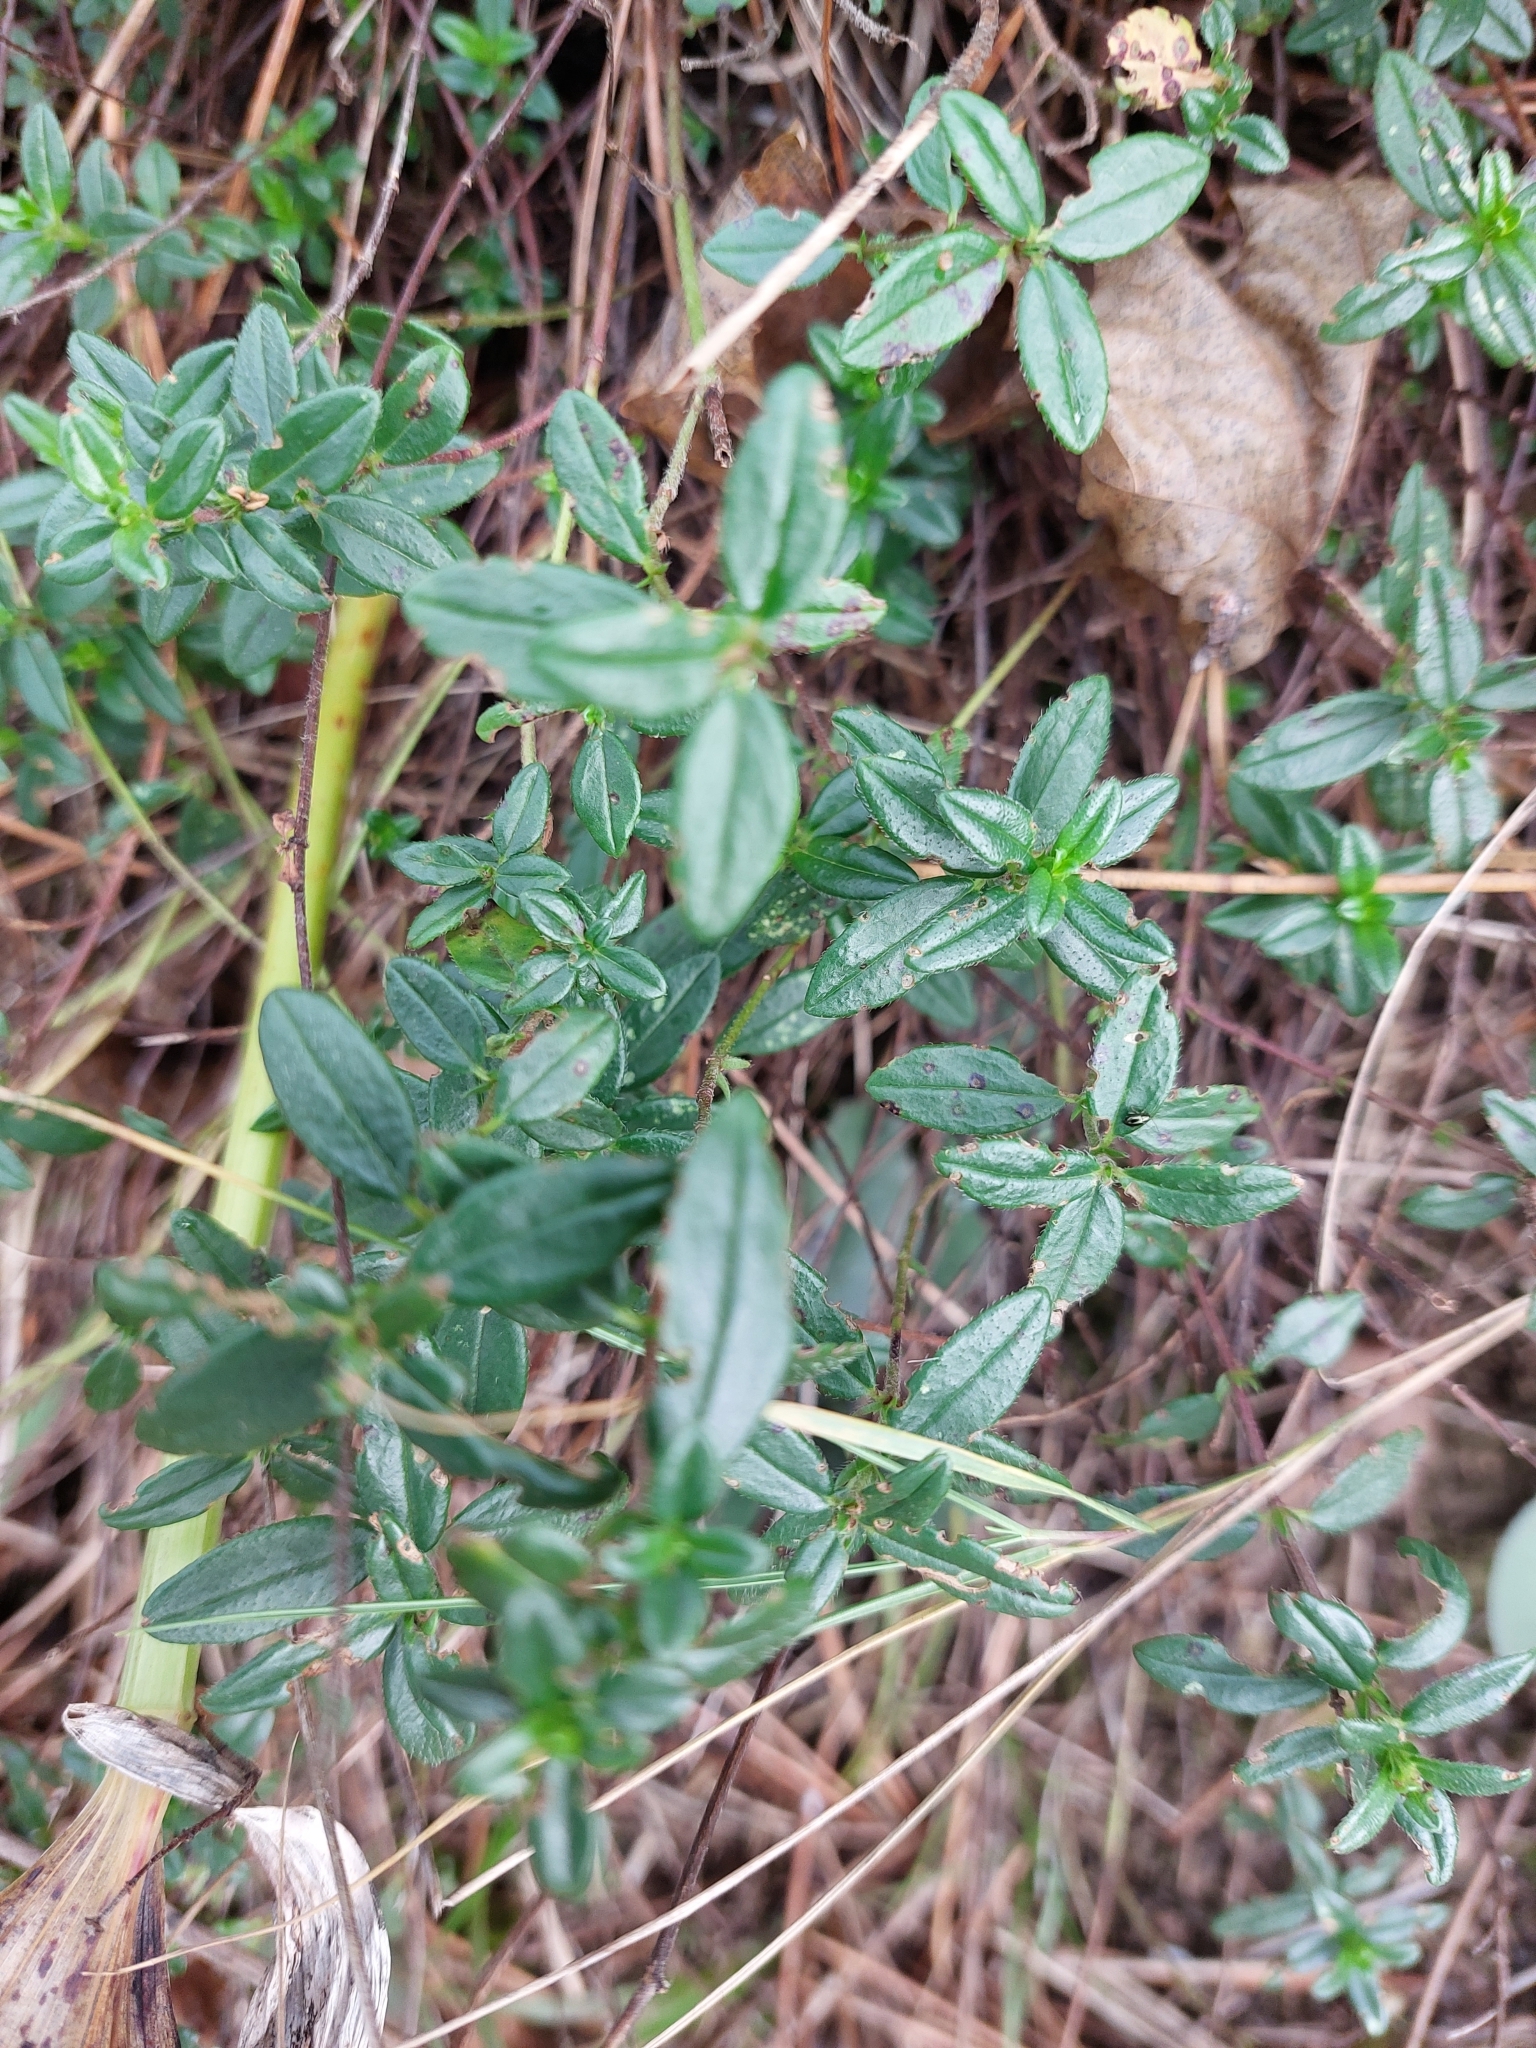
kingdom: Plantae
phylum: Tracheophyta
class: Magnoliopsida
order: Malvales
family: Cistaceae
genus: Helianthemum
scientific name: Helianthemum nummularium
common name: Common rock-rose
